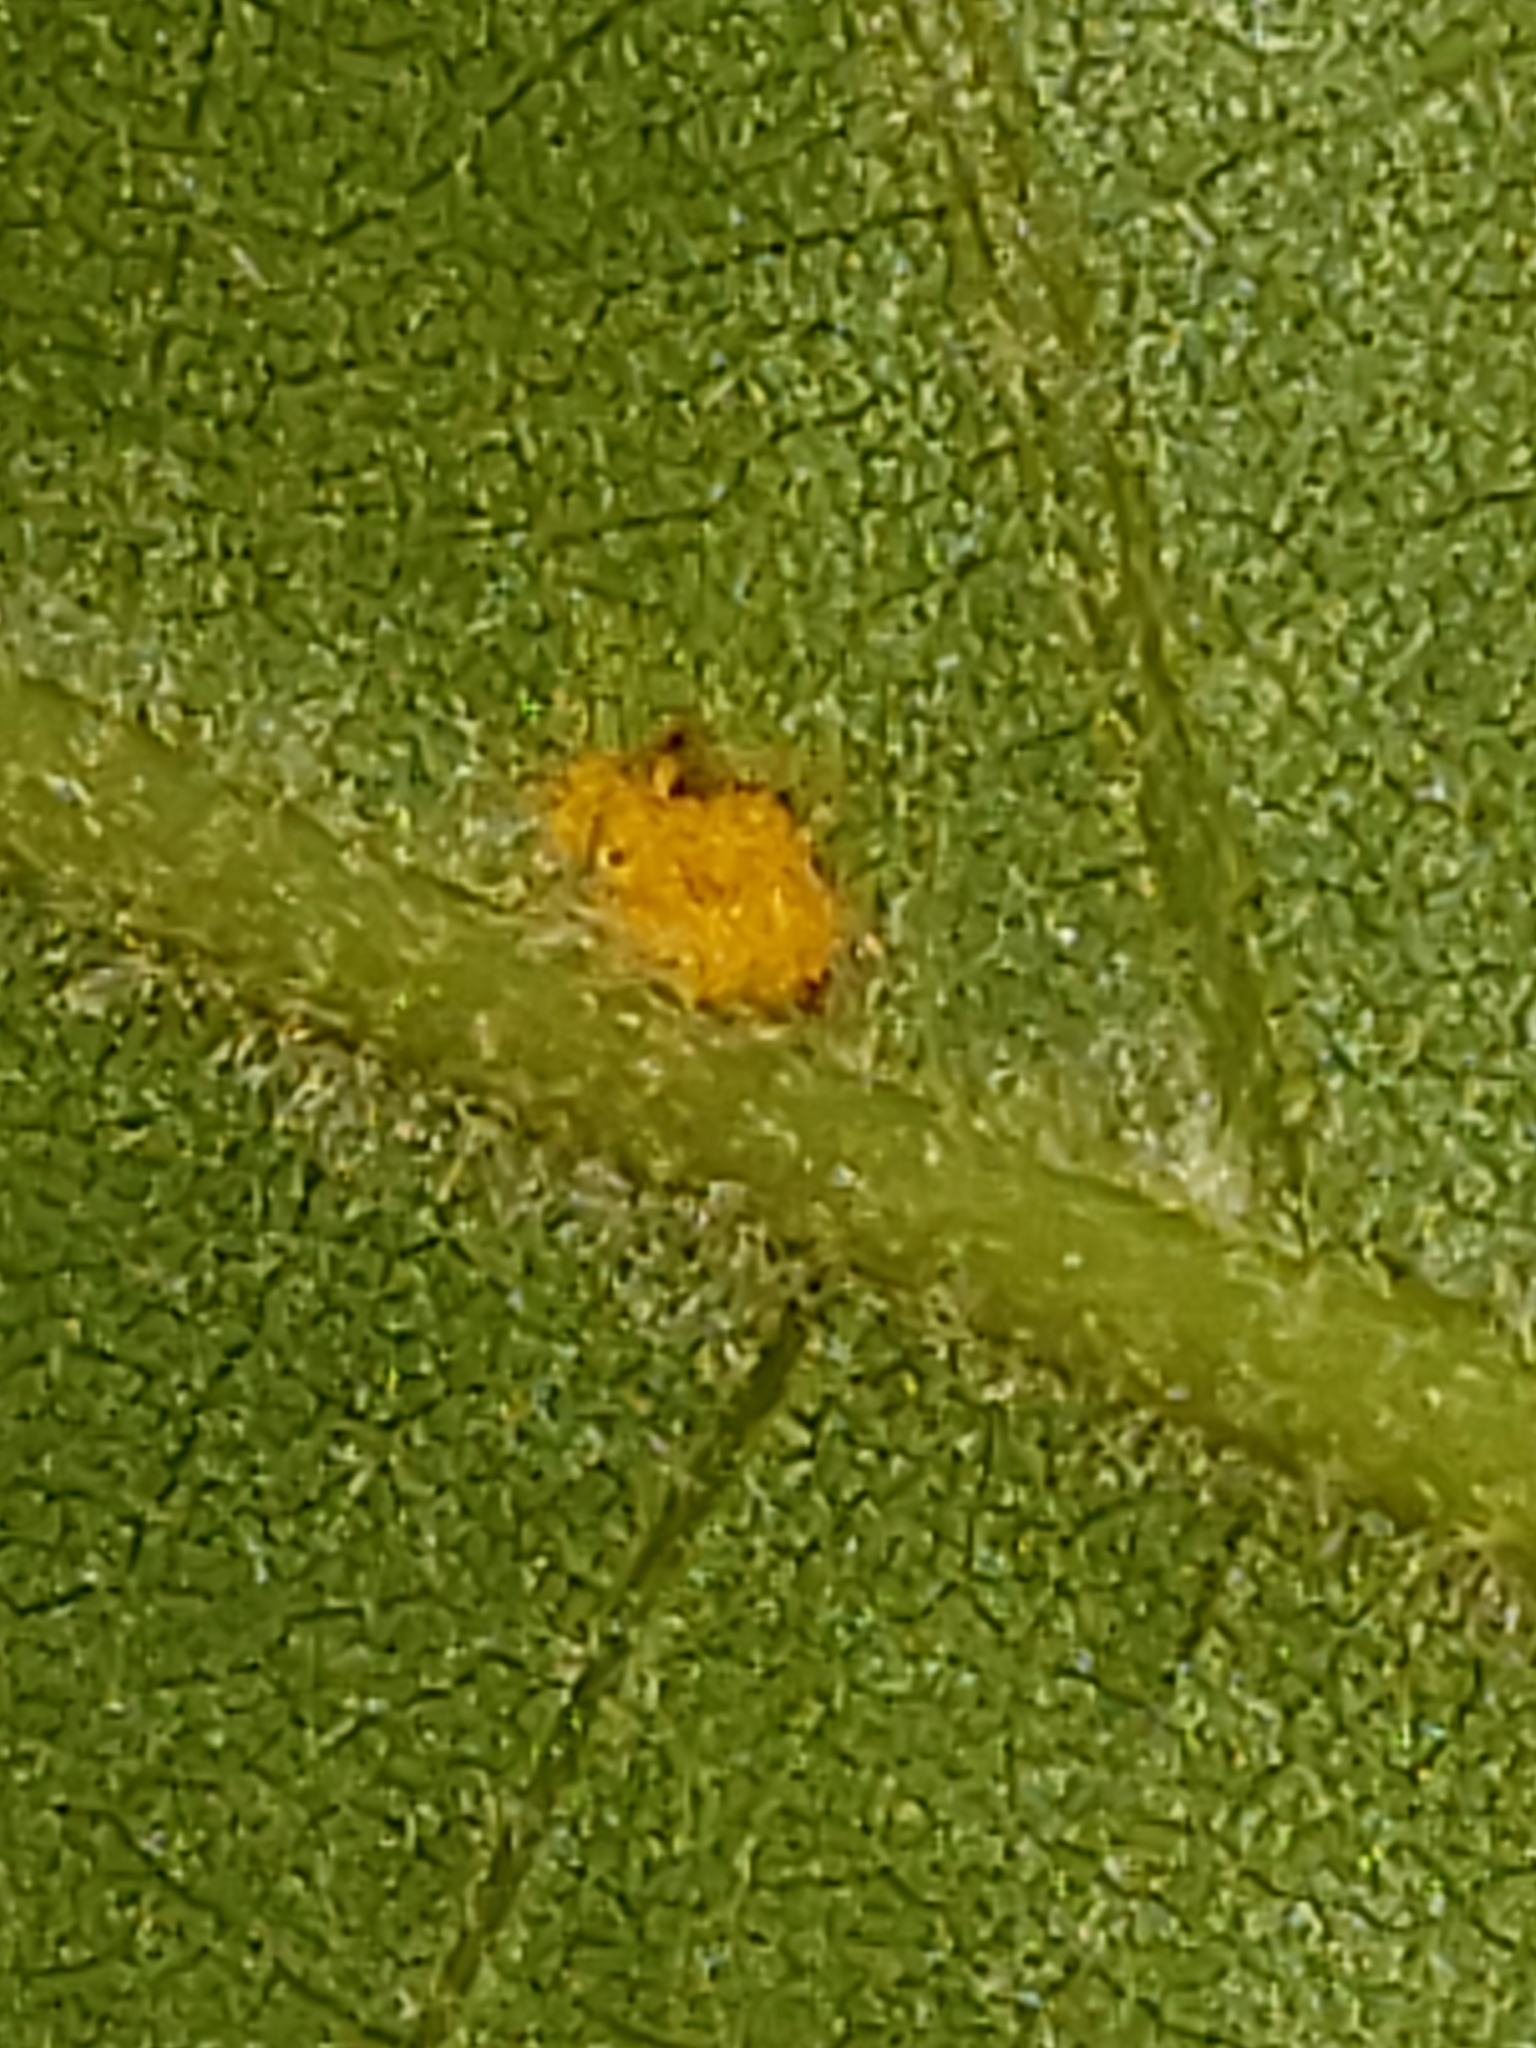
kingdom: Fungi
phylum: Basidiomycota
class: Pucciniomycetes
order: Pucciniales
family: Cronartiaceae
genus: Cronartium
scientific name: Cronartium quercuum
